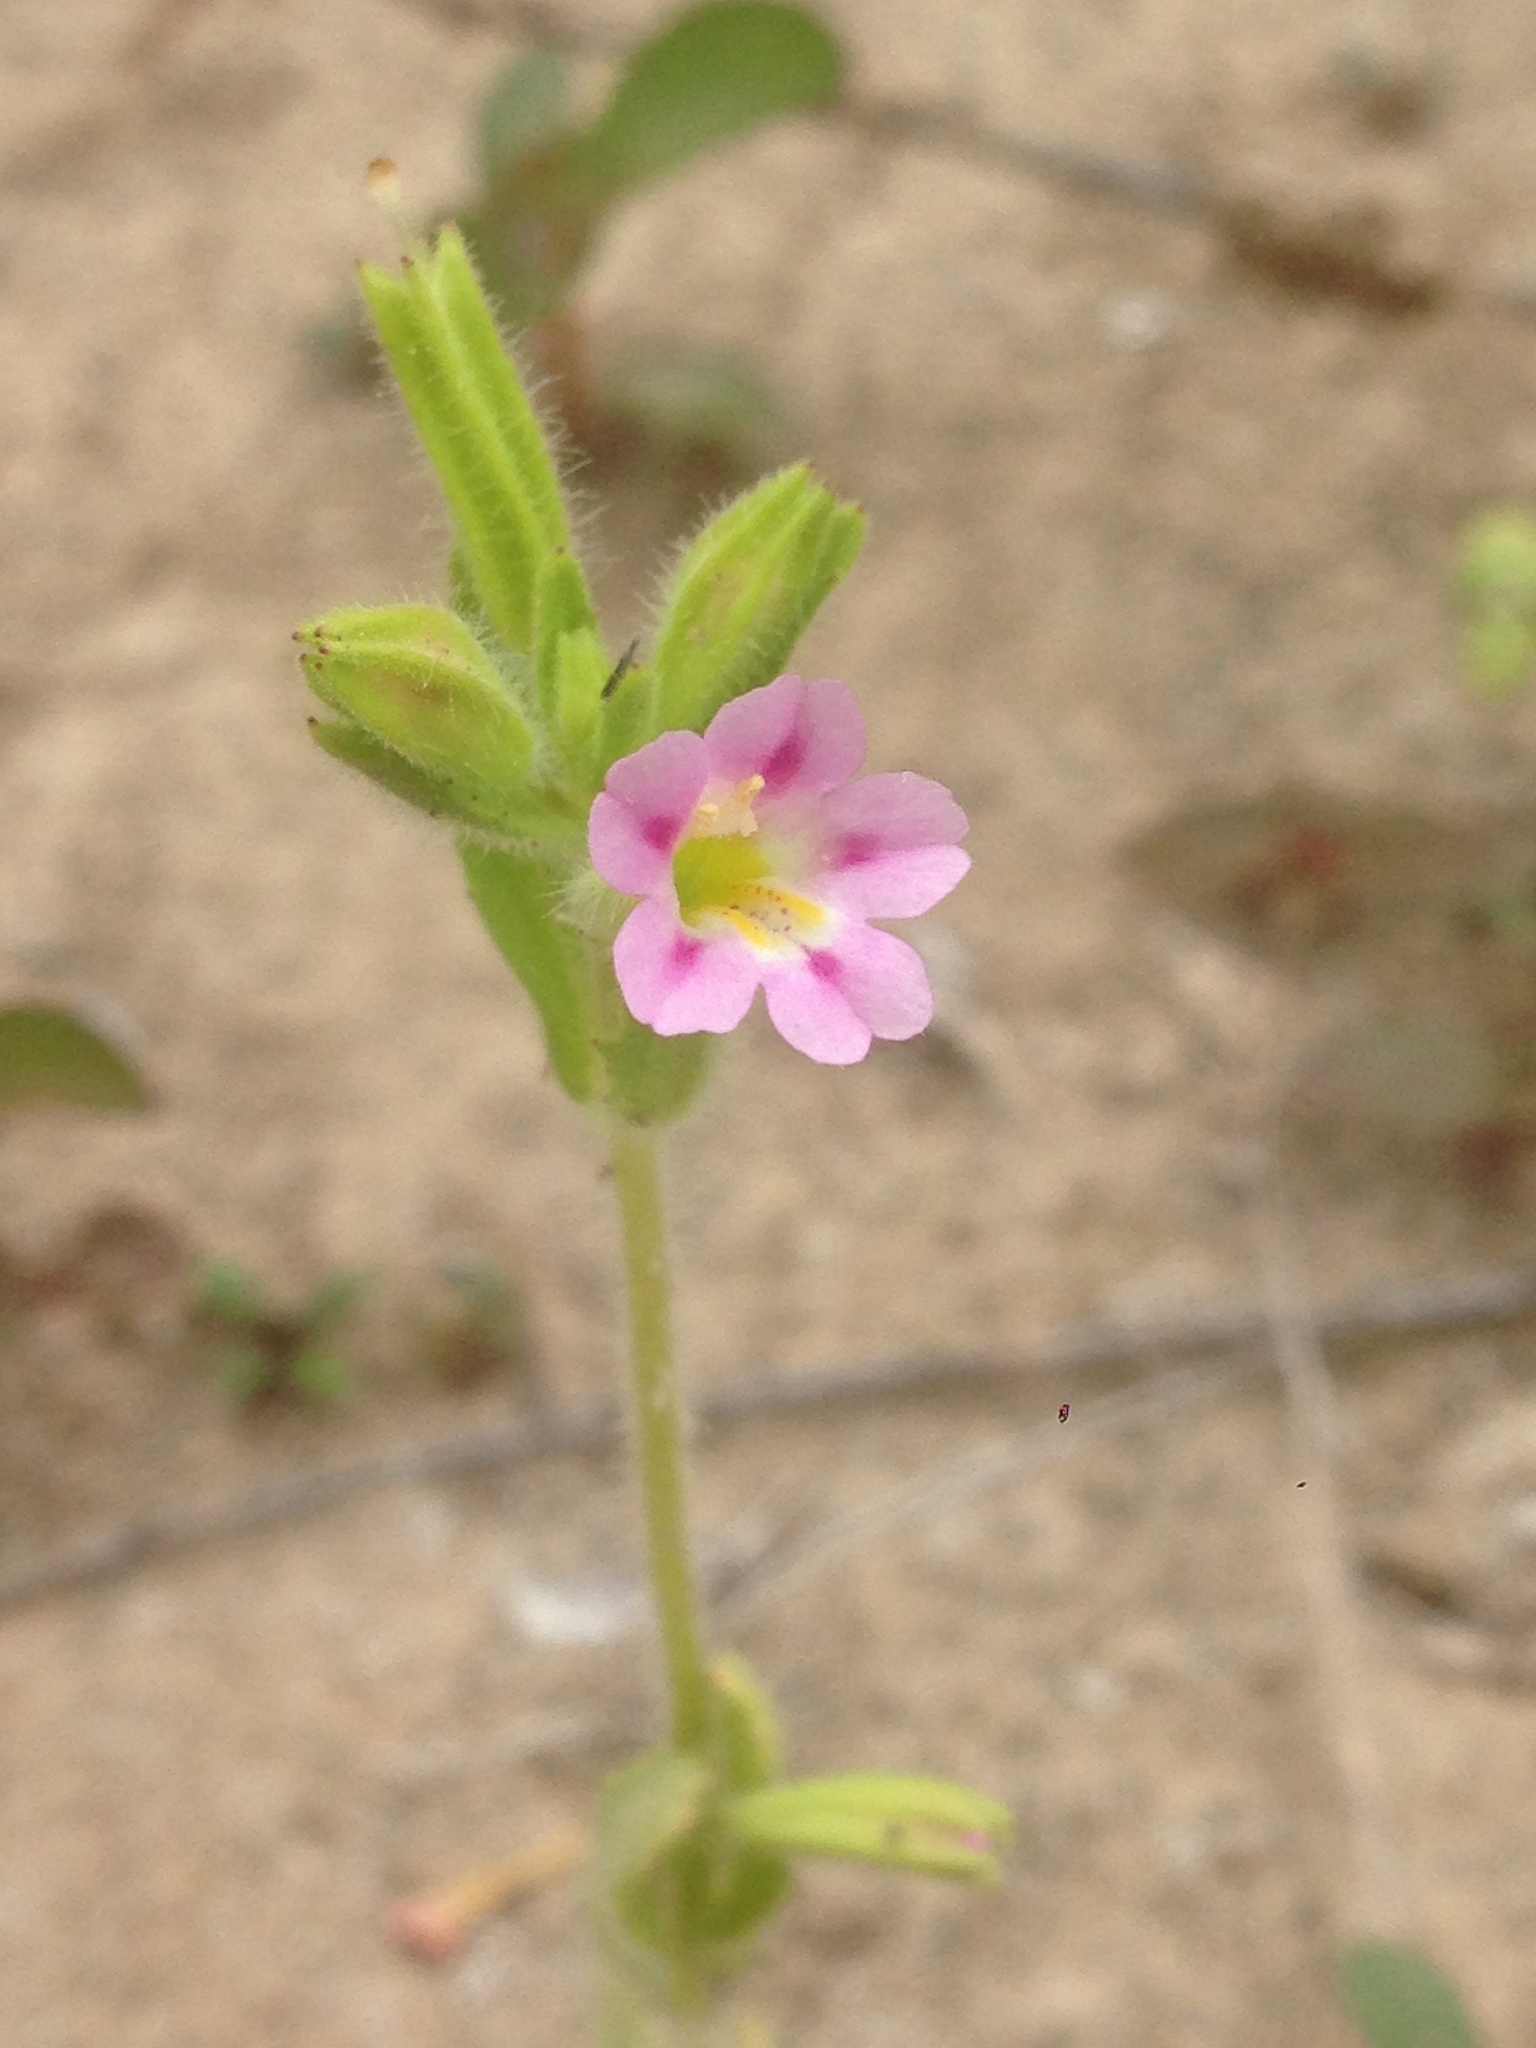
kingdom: Plantae
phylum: Tracheophyta
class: Magnoliopsida
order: Lamiales
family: Phrymaceae
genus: Erythranthe
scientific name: Erythranthe parishii
